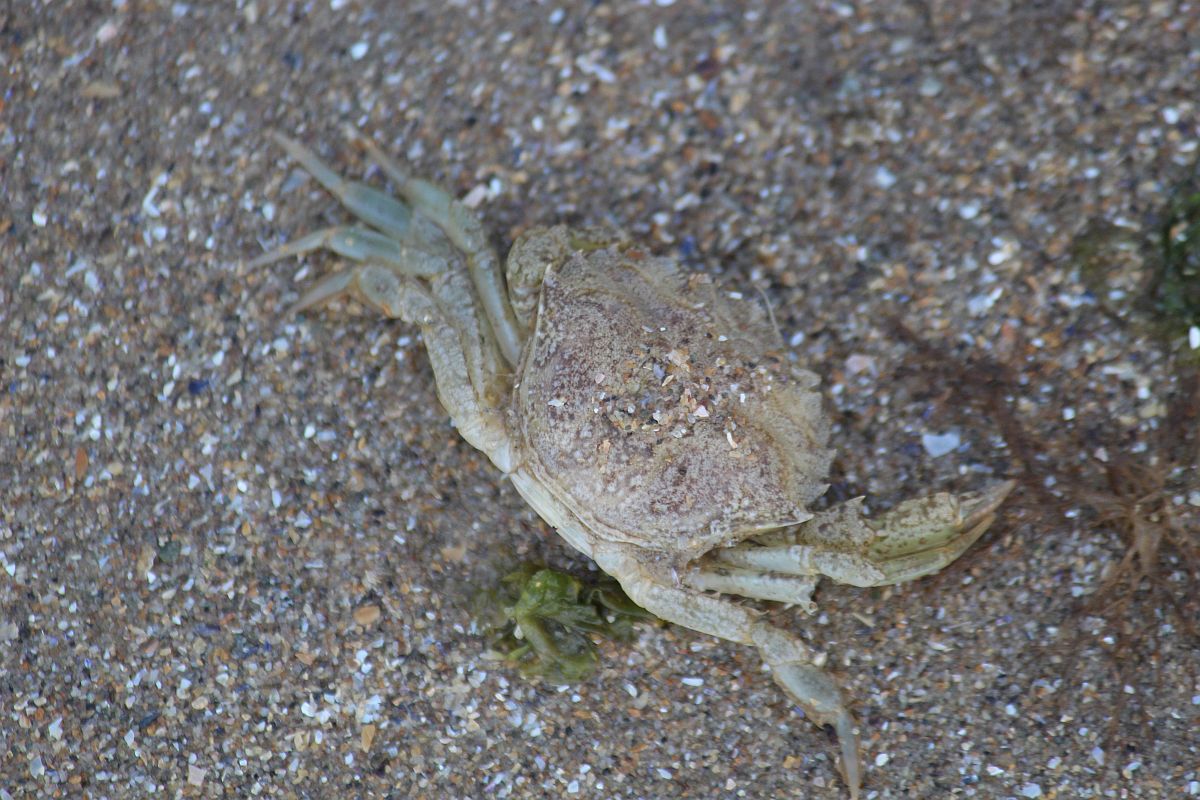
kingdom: Animalia
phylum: Arthropoda
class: Malacostraca
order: Decapoda
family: Carcinidae
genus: Carcinus
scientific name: Carcinus maenas
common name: European green crab
